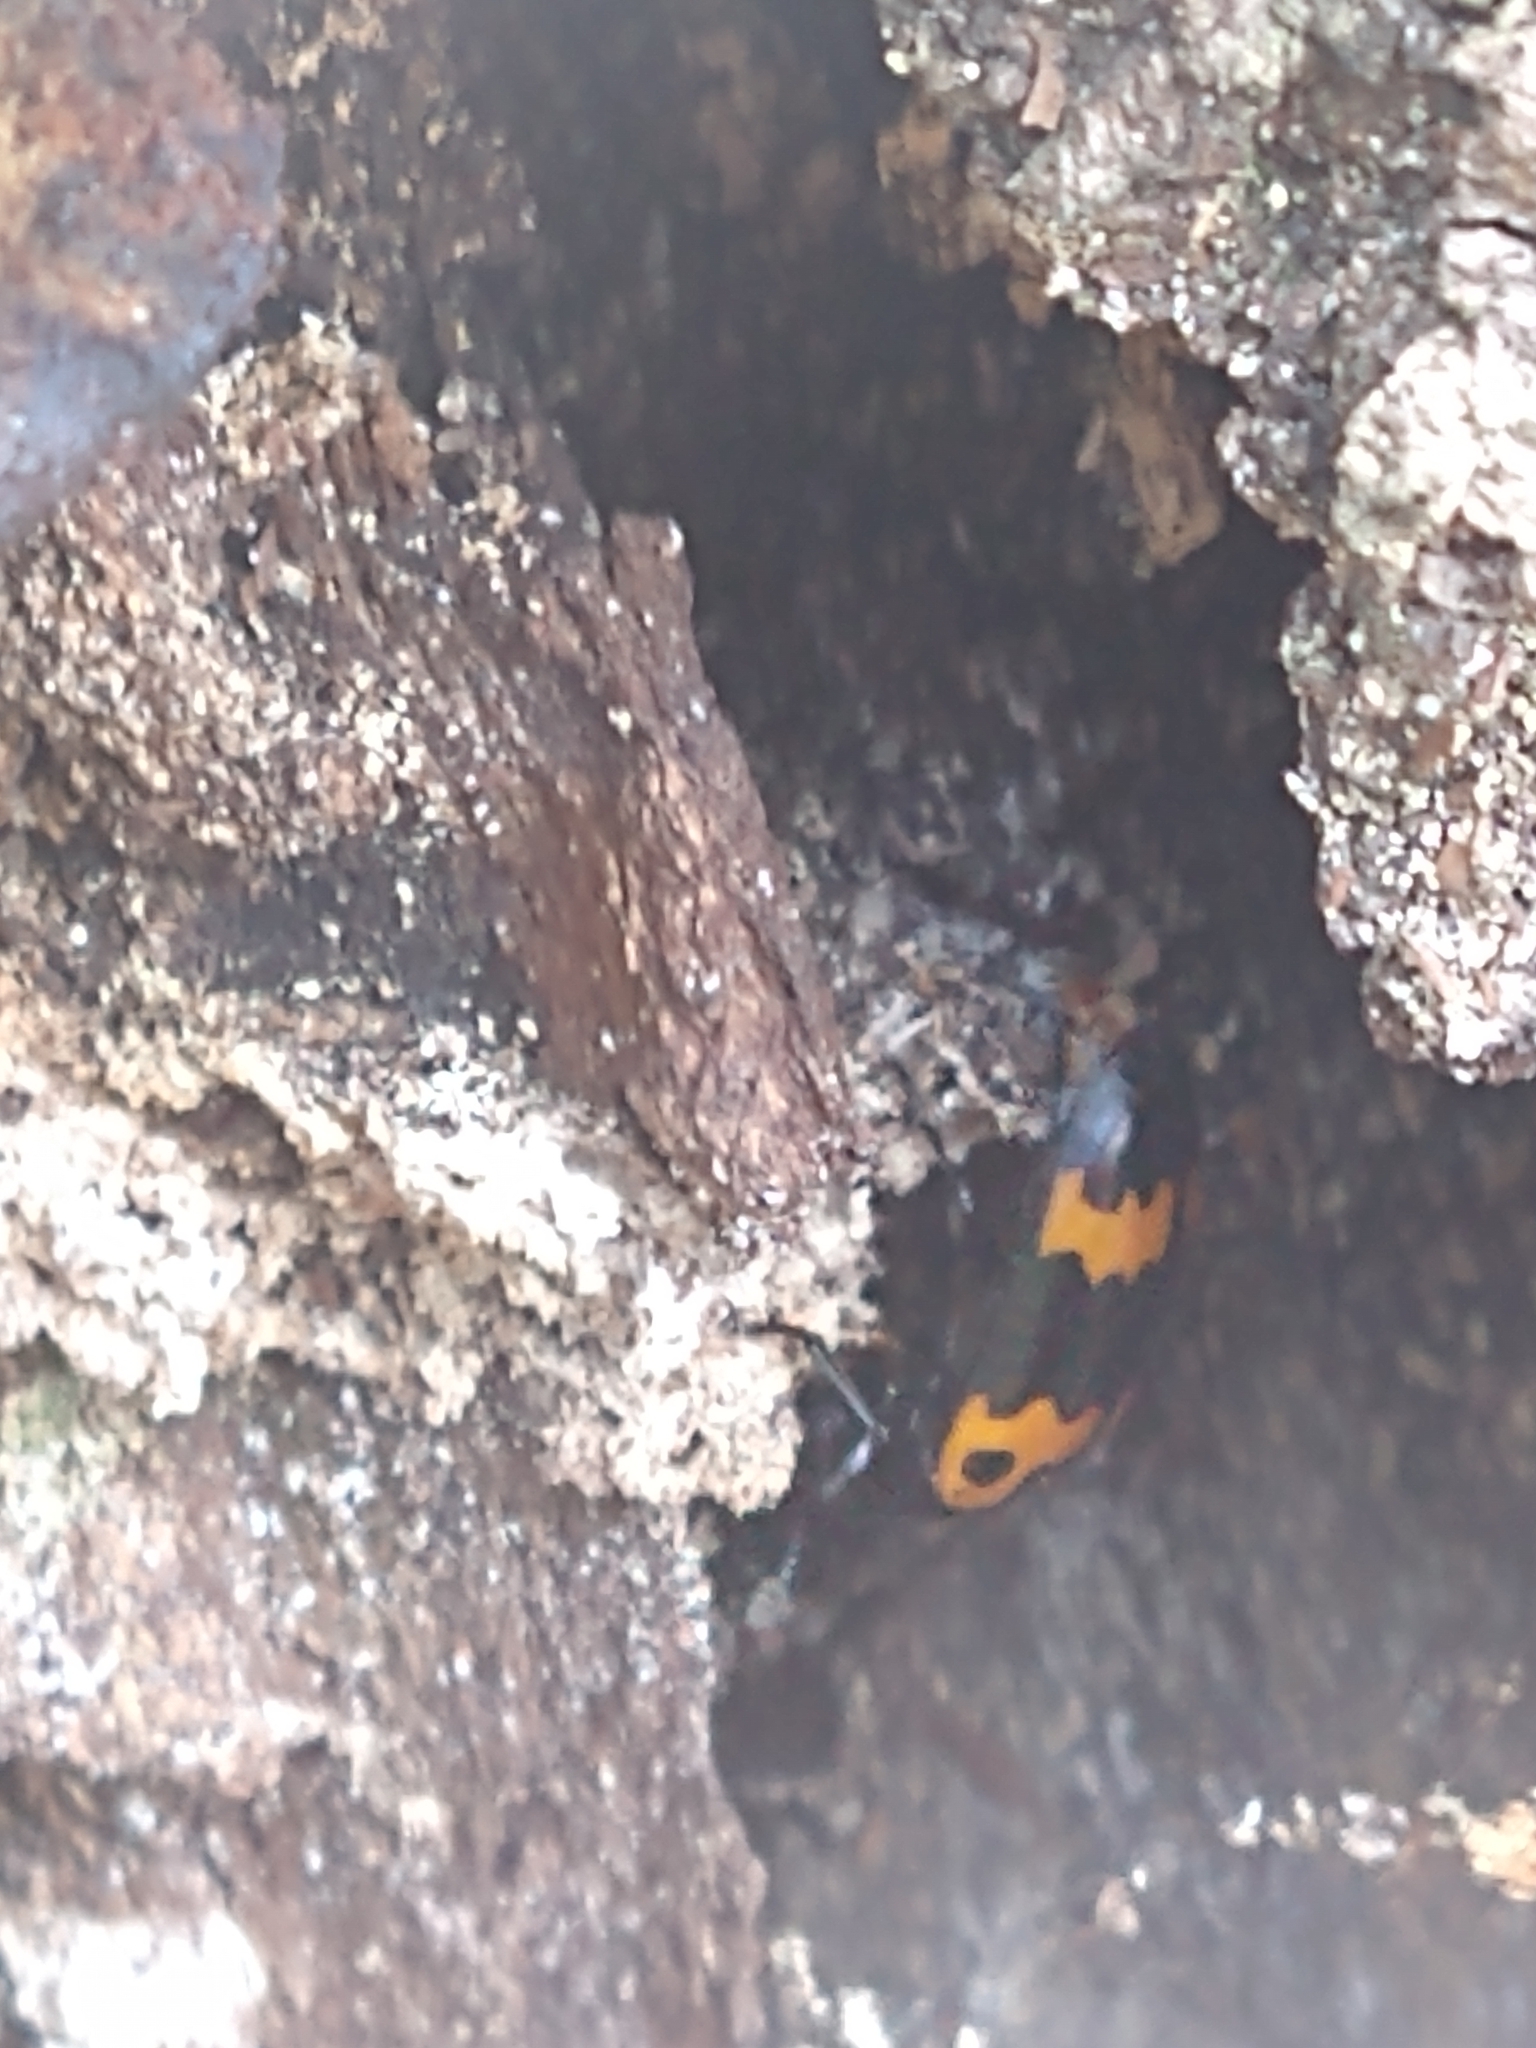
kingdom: Animalia
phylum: Arthropoda
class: Insecta
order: Coleoptera
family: Erotylidae
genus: Megalodacne
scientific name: Megalodacne fasciata
